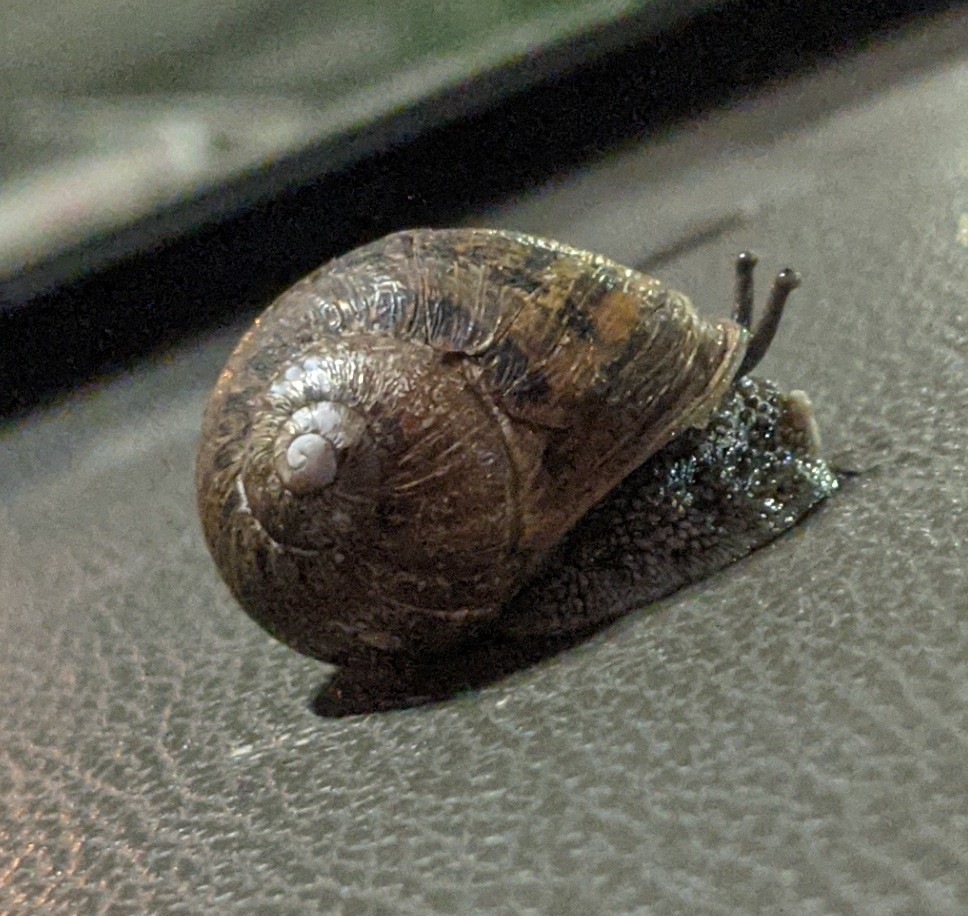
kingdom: Animalia
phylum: Mollusca
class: Gastropoda
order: Stylommatophora
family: Helicidae
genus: Cornu
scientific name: Cornu aspersum
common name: Brown garden snail
